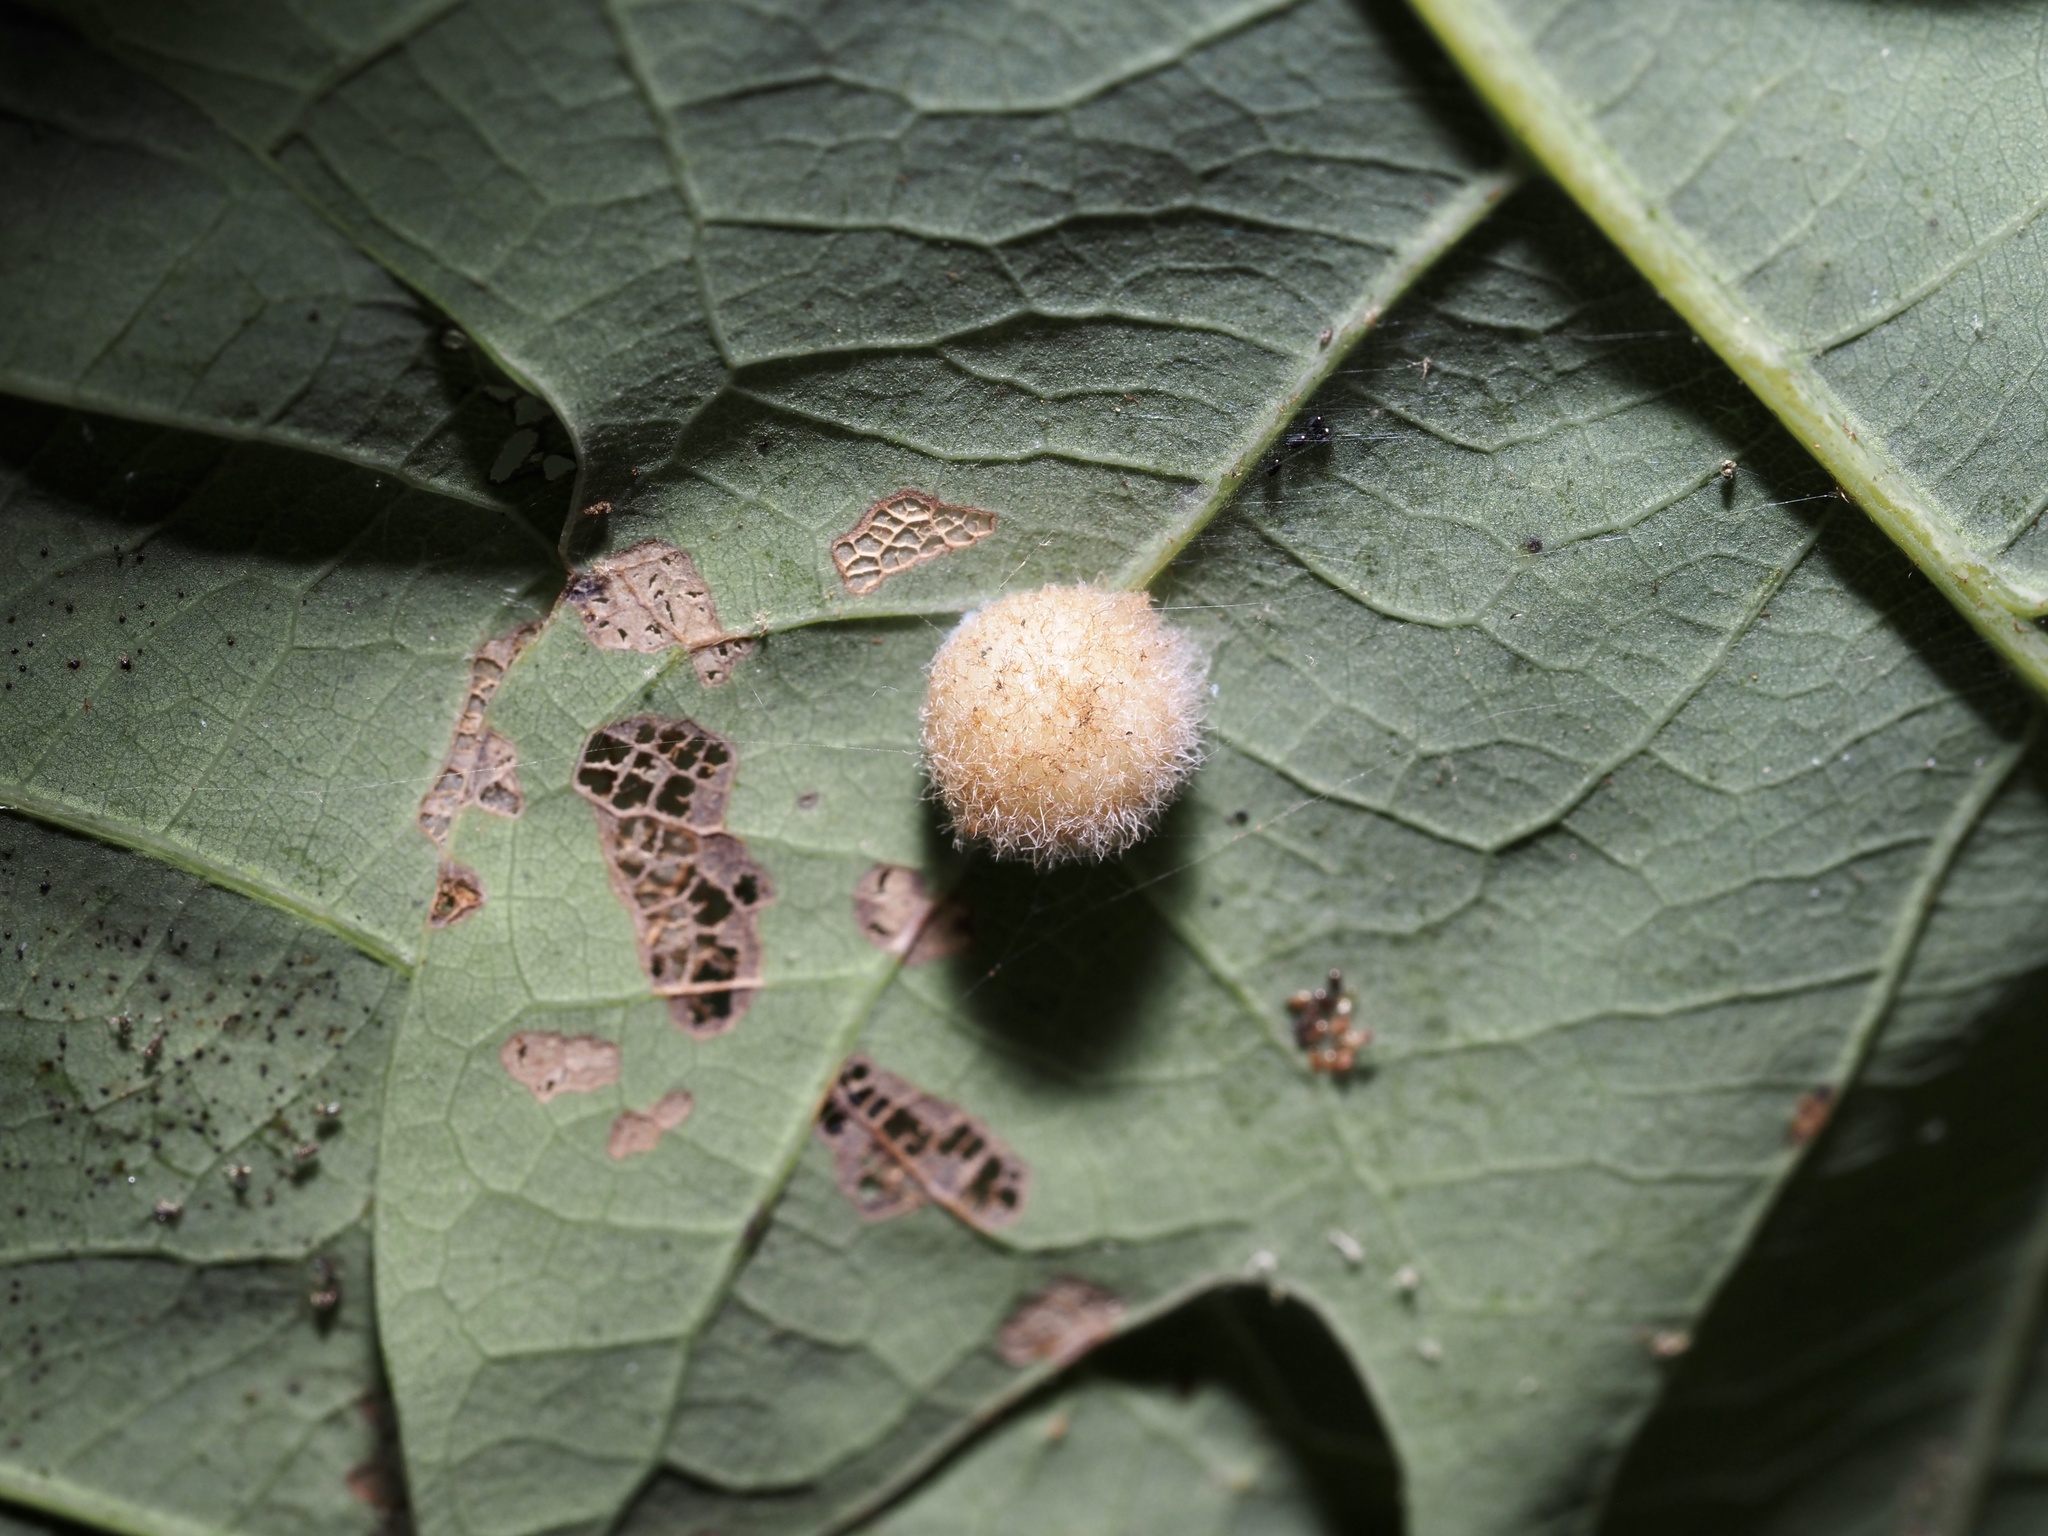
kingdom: Animalia
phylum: Arthropoda
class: Insecta
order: Hymenoptera
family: Cynipidae
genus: Philonix
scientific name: Philonix fulvicollis
